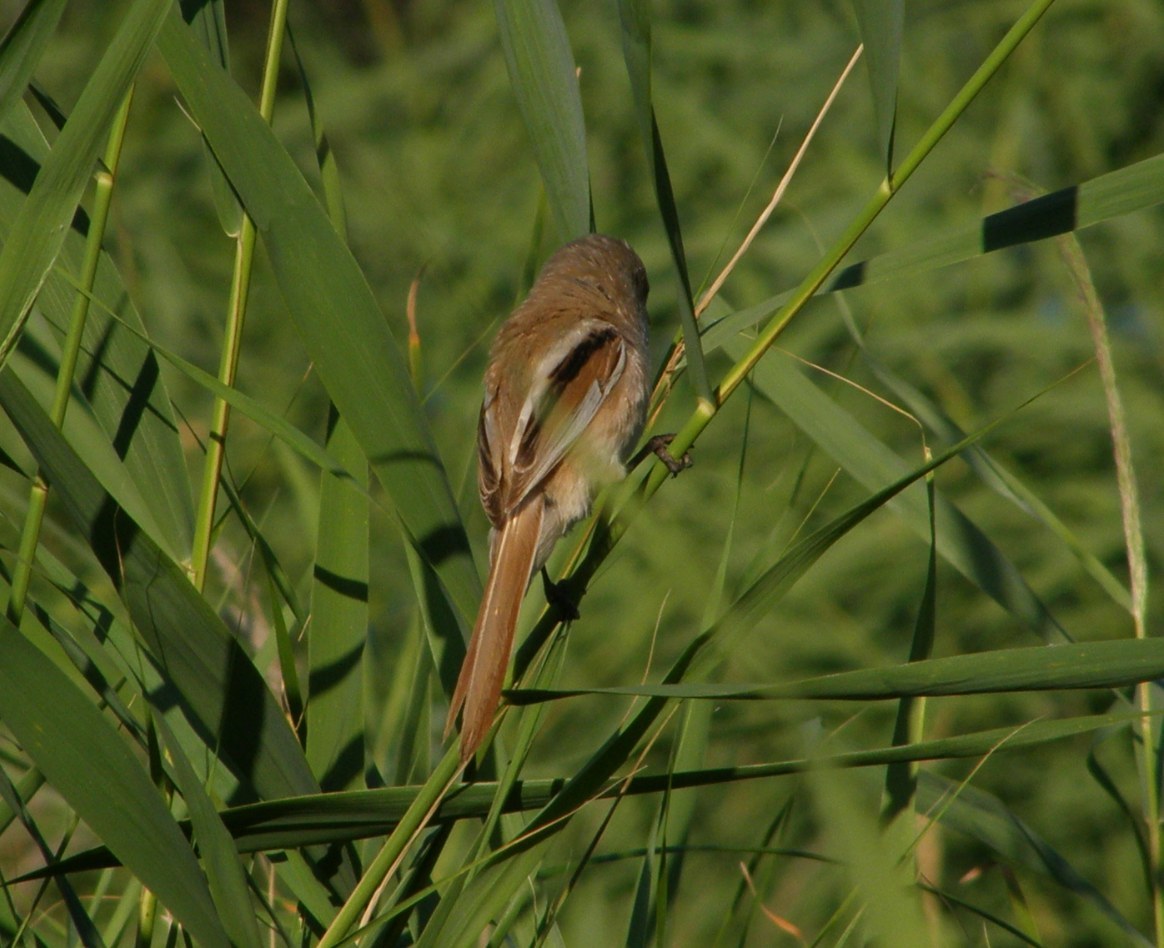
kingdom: Animalia
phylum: Chordata
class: Aves
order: Passeriformes
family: Panuridae
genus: Panurus
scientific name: Panurus biarmicus
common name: Bearded reedling
